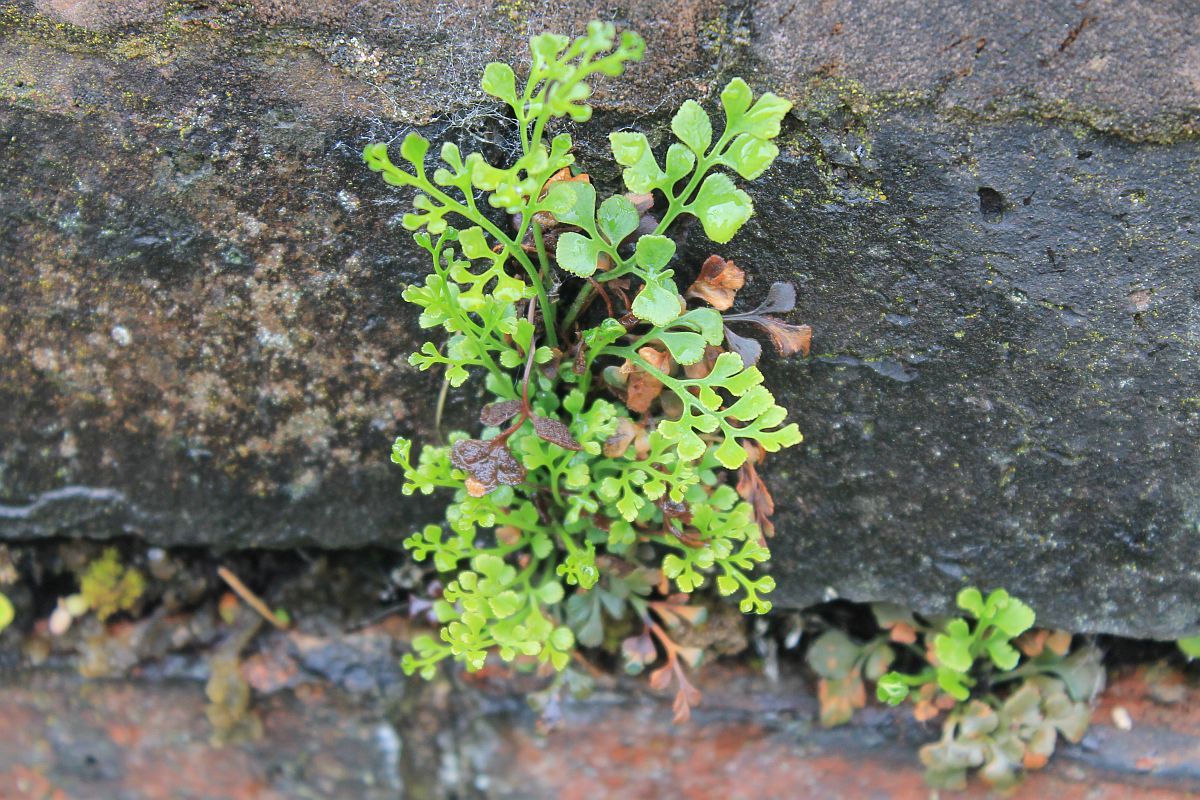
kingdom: Plantae
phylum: Tracheophyta
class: Polypodiopsida
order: Polypodiales
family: Aspleniaceae
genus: Asplenium
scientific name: Asplenium ruta-muraria
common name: Wall-rue
